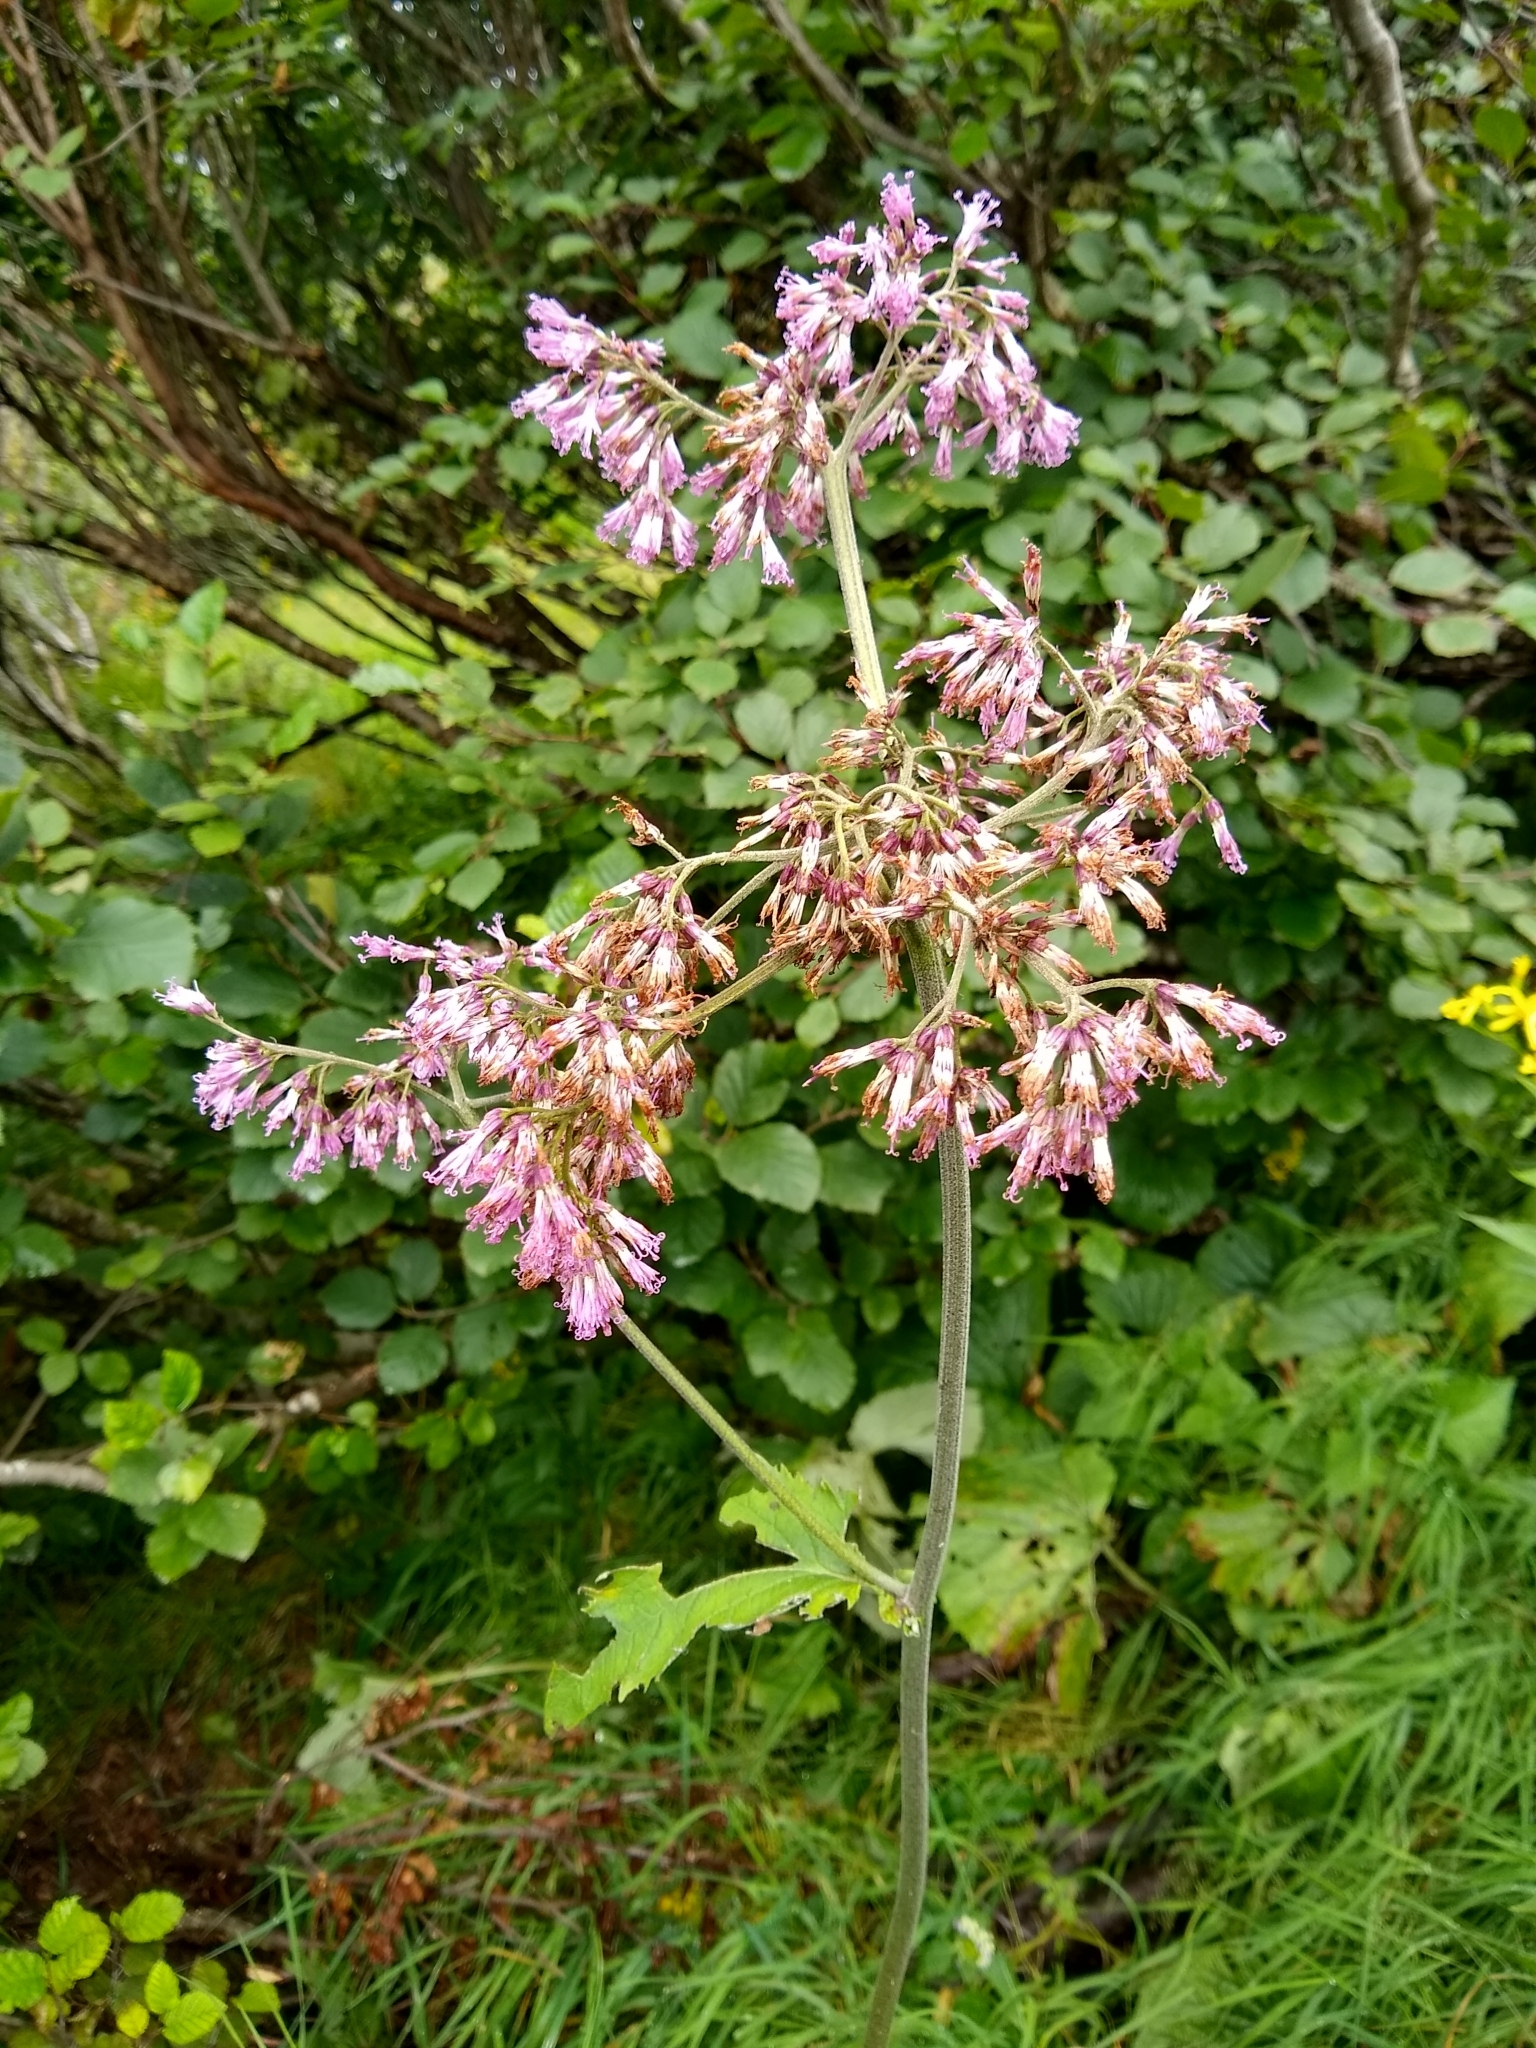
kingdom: Plantae
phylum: Tracheophyta
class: Magnoliopsida
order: Asterales
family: Asteraceae
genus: Adenostyles
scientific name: Adenostyles alliariae
